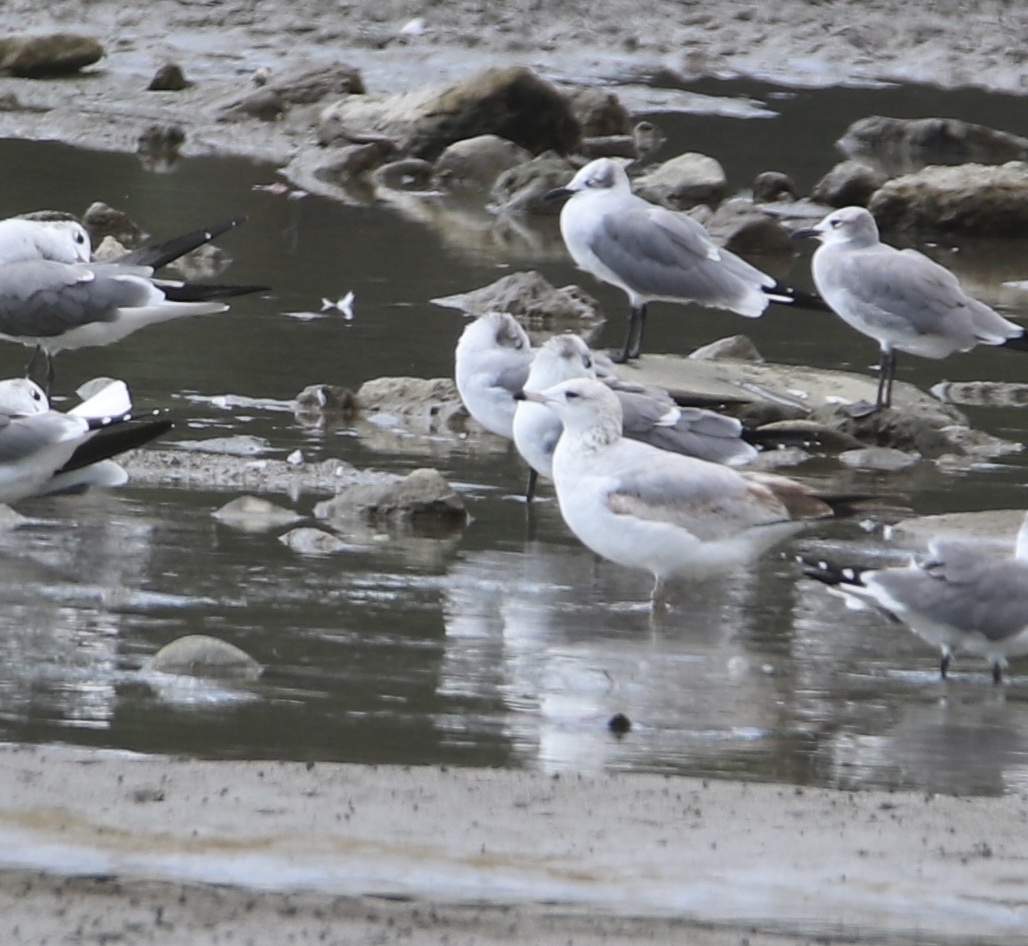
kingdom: Animalia
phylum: Chordata
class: Aves
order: Charadriiformes
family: Laridae
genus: Larus
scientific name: Larus delawarensis
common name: Ring-billed gull
